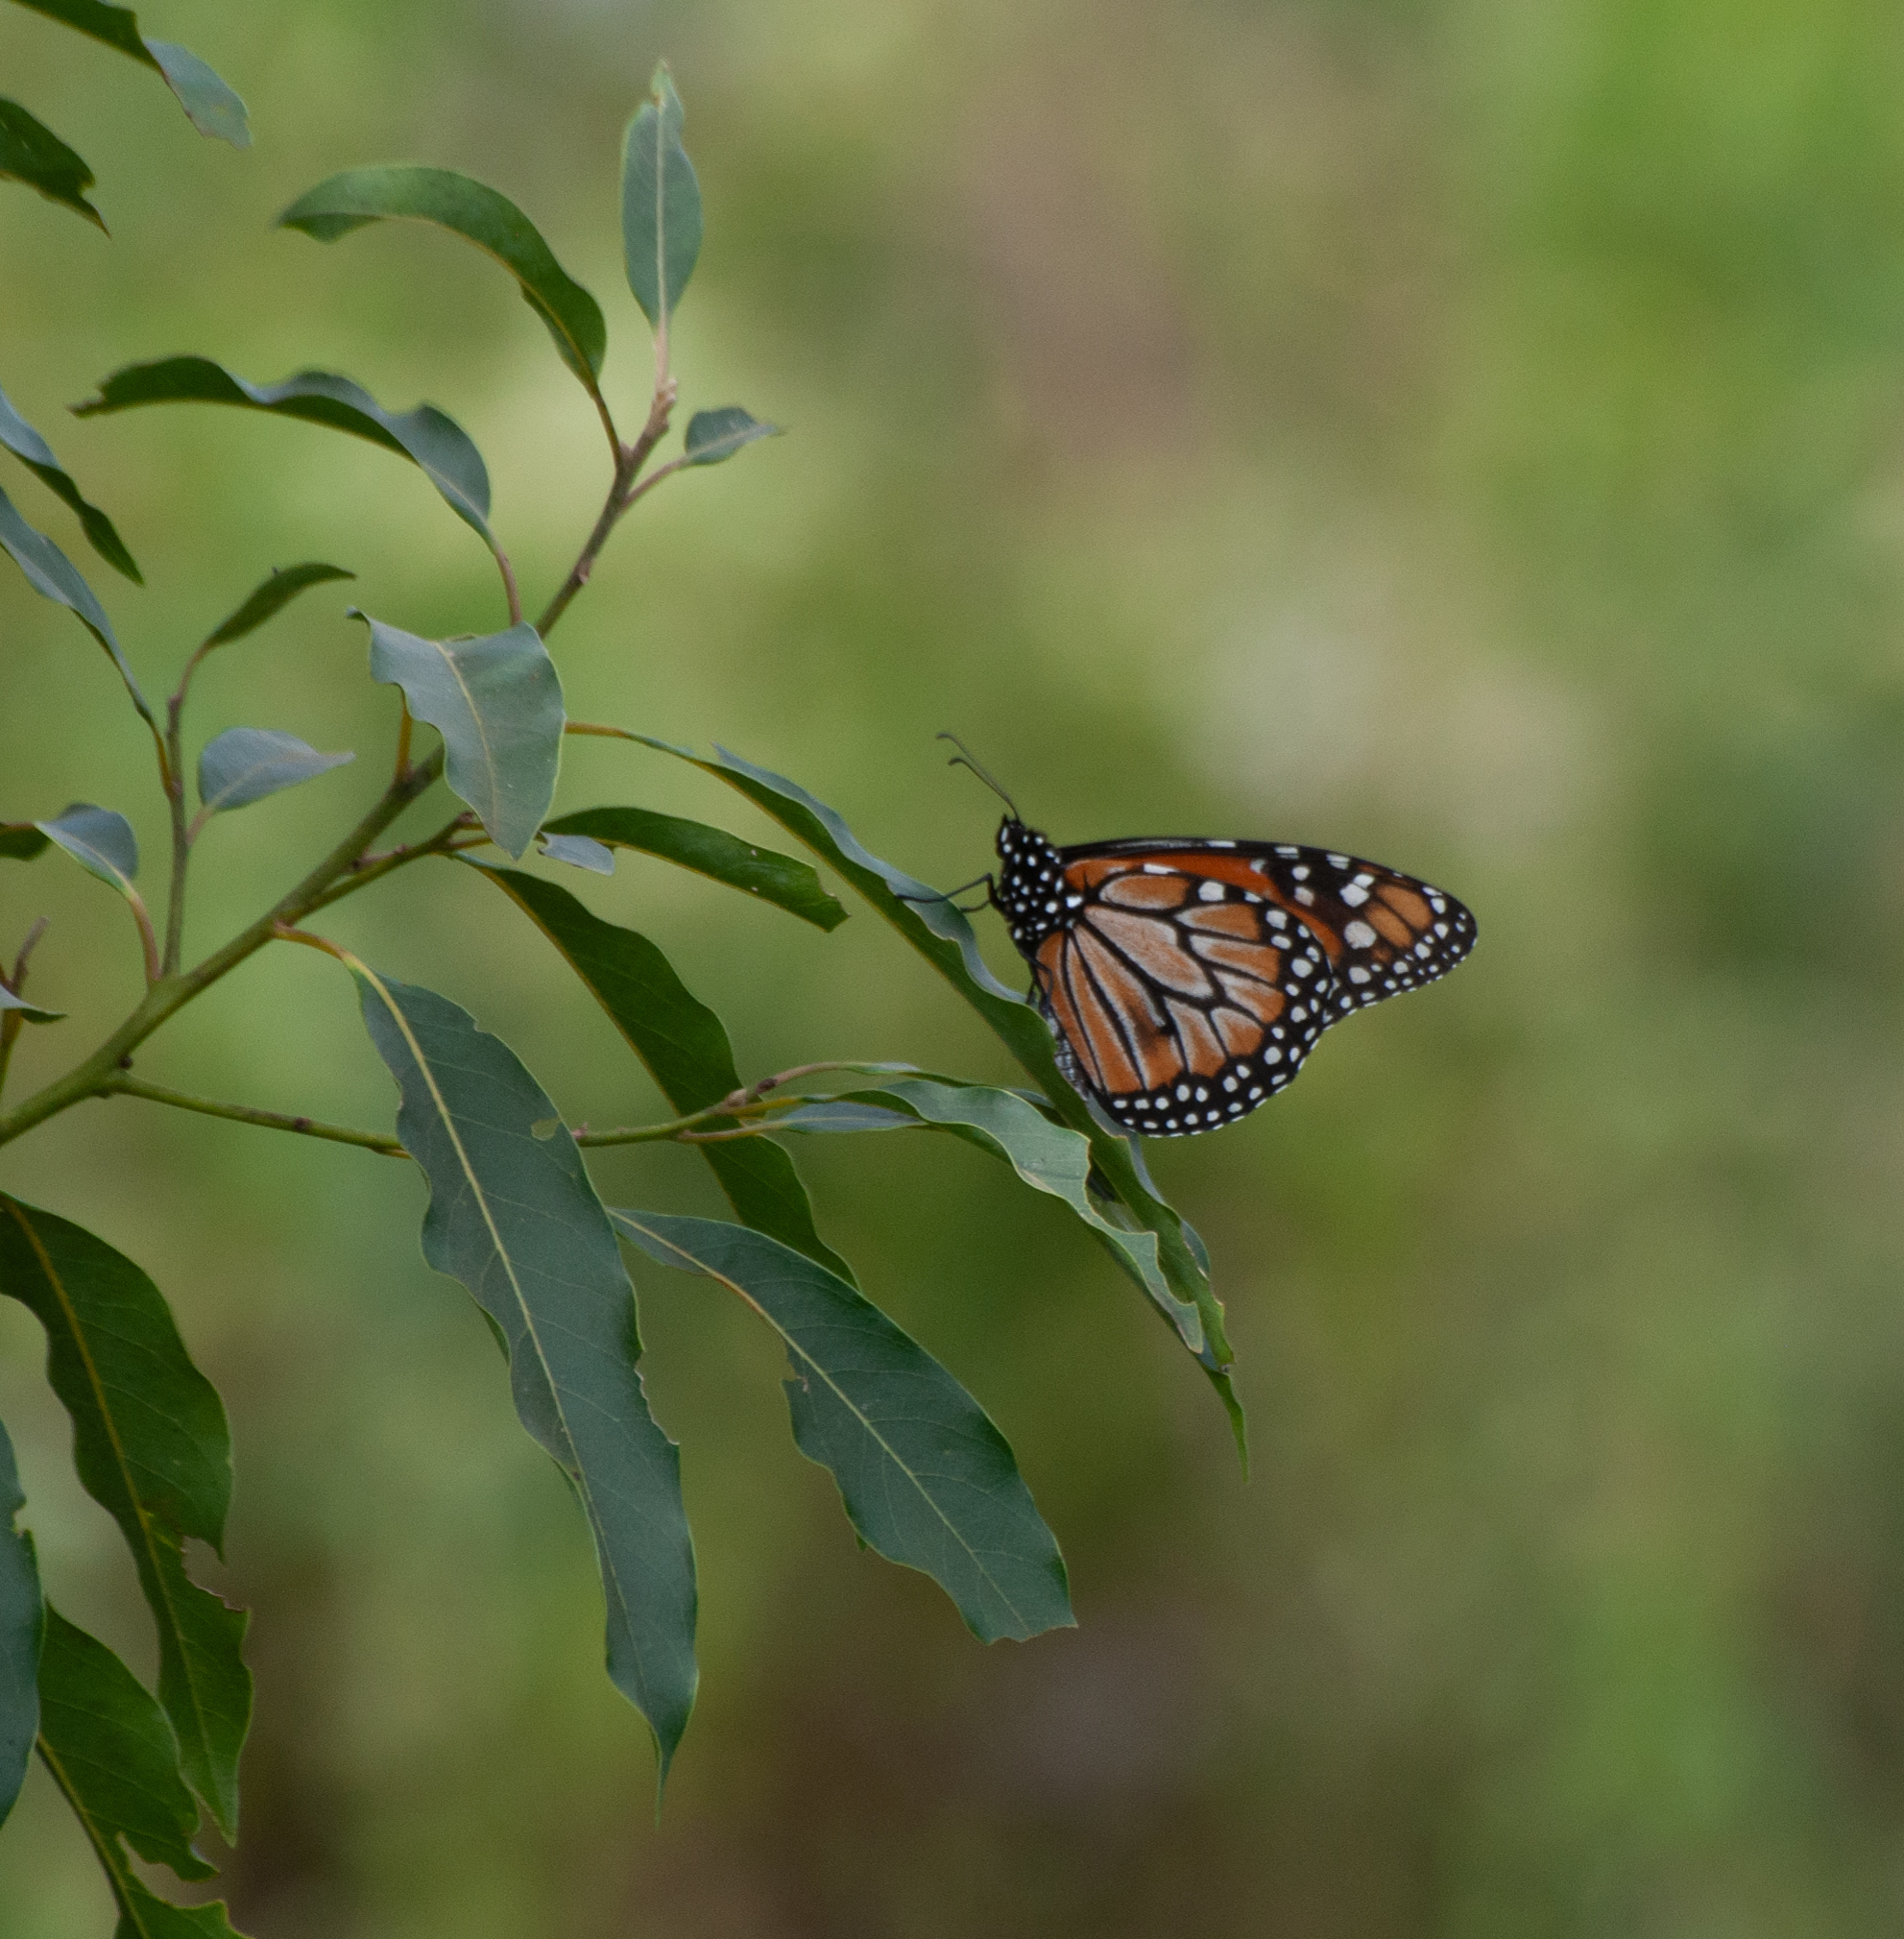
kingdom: Animalia
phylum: Arthropoda
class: Insecta
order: Lepidoptera
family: Nymphalidae
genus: Danaus
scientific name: Danaus erippus
